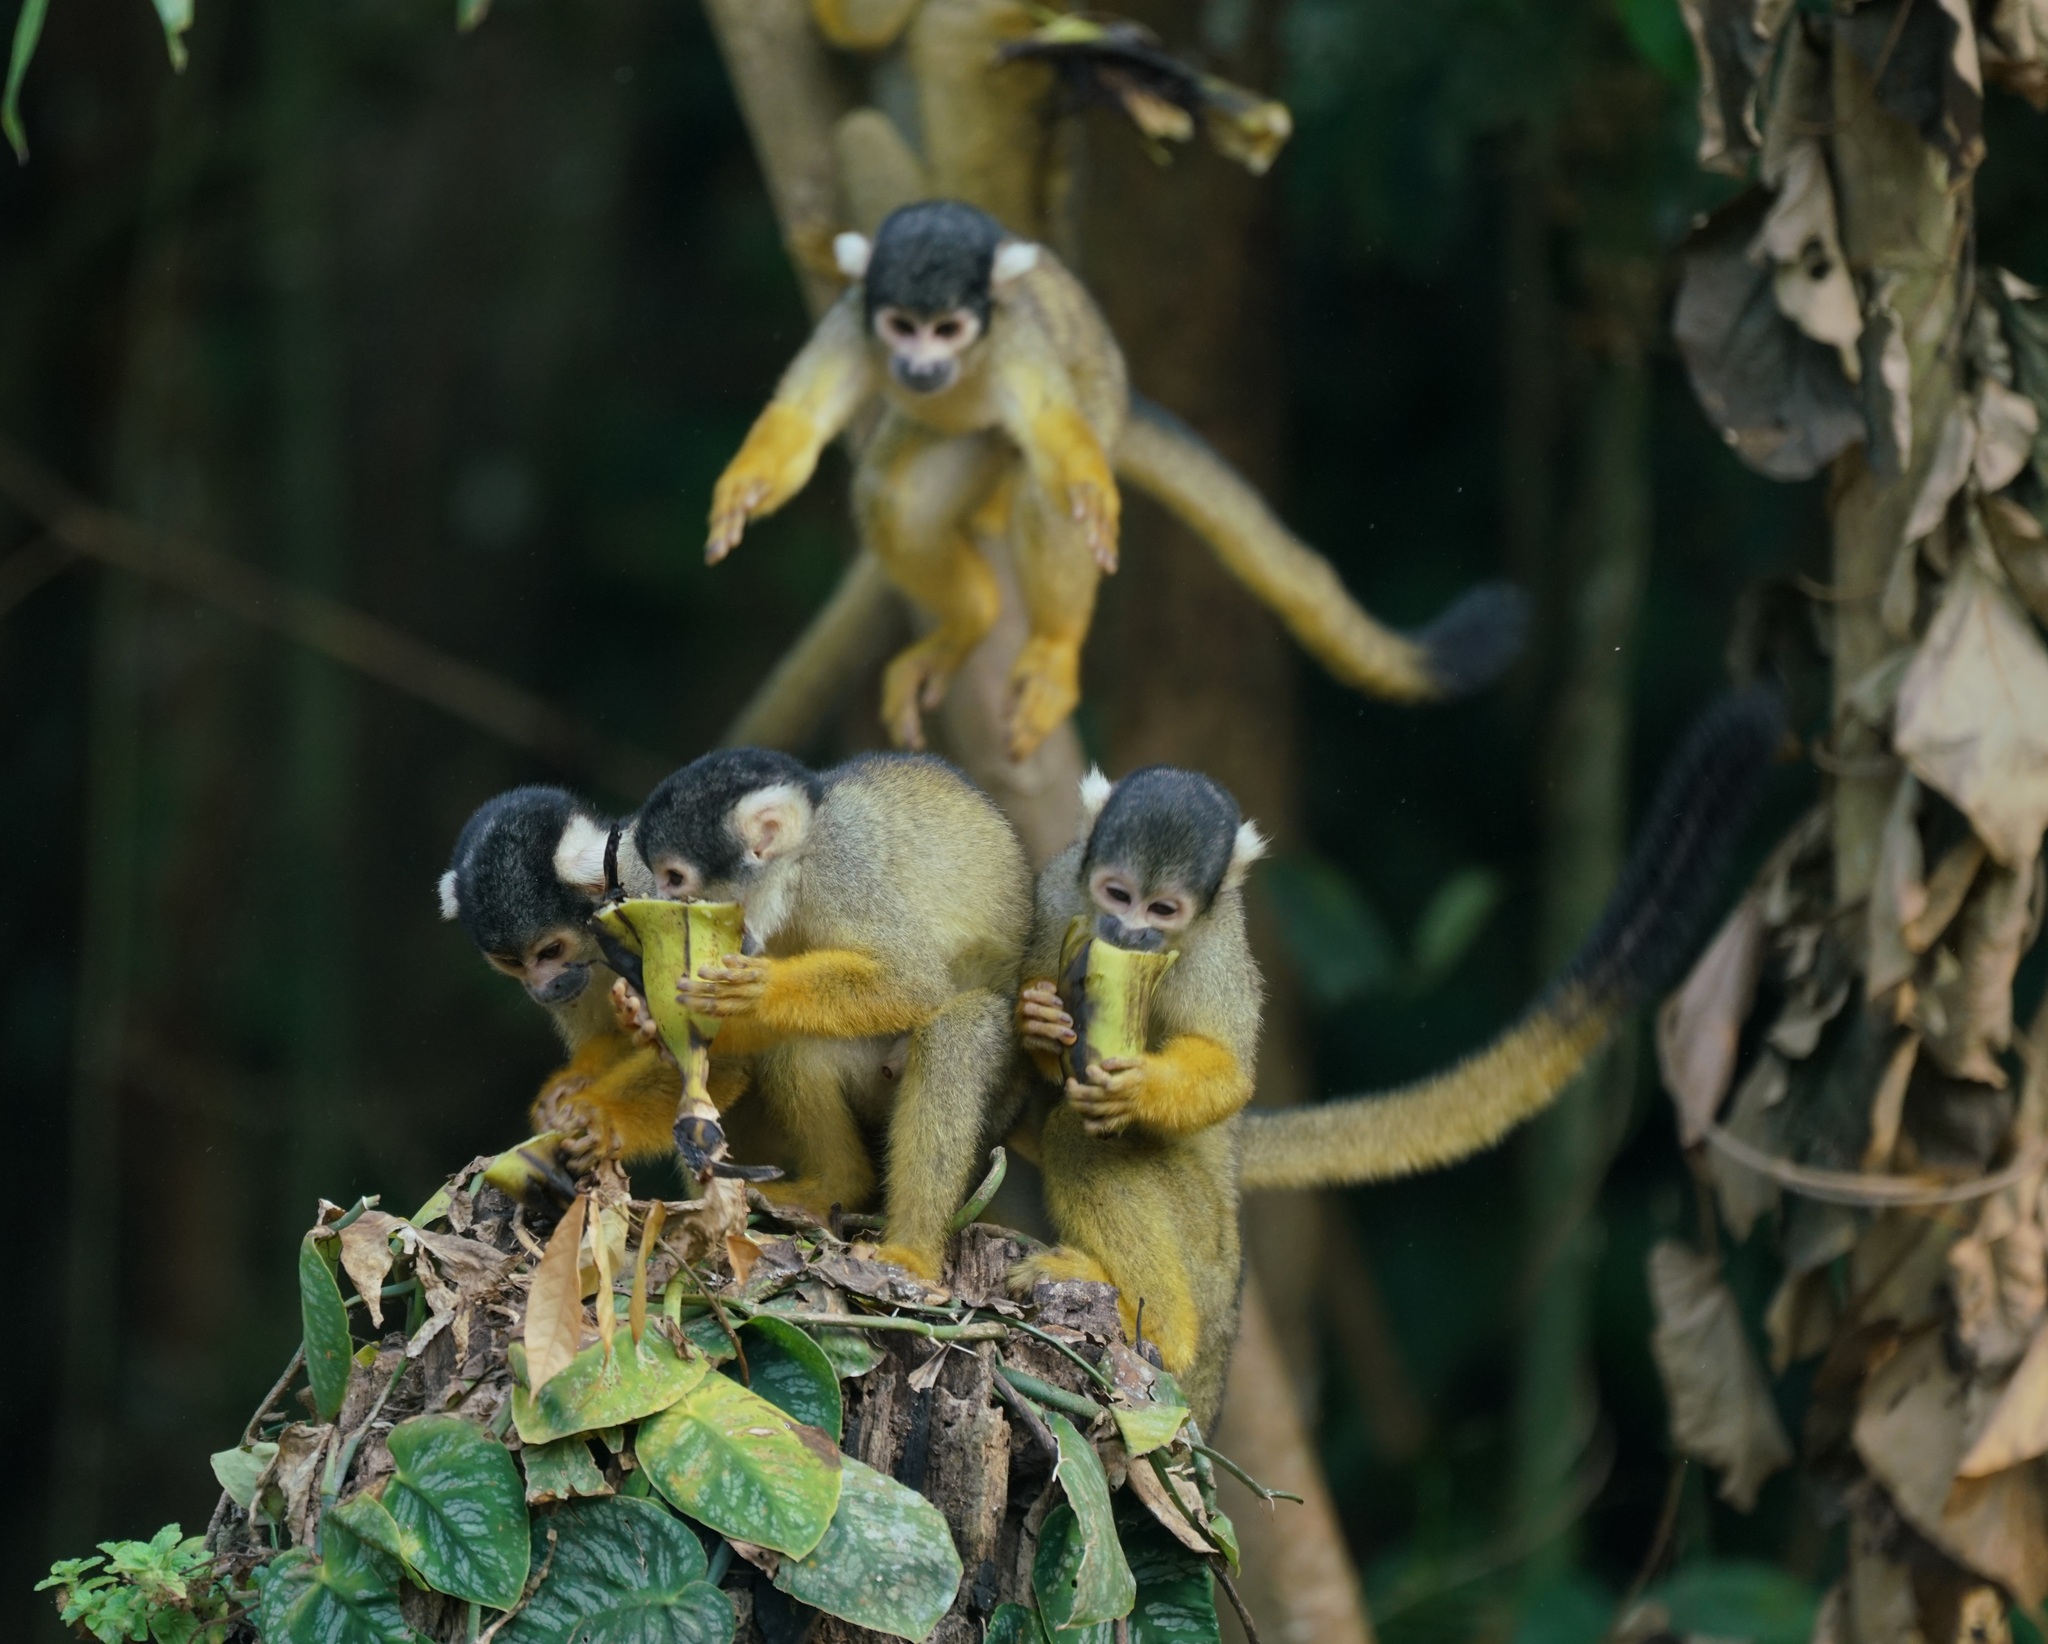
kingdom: Animalia
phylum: Chordata
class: Mammalia
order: Primates
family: Cebidae
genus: Saimiri
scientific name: Saimiri boliviensis
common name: Black-capped squirrel monkey
